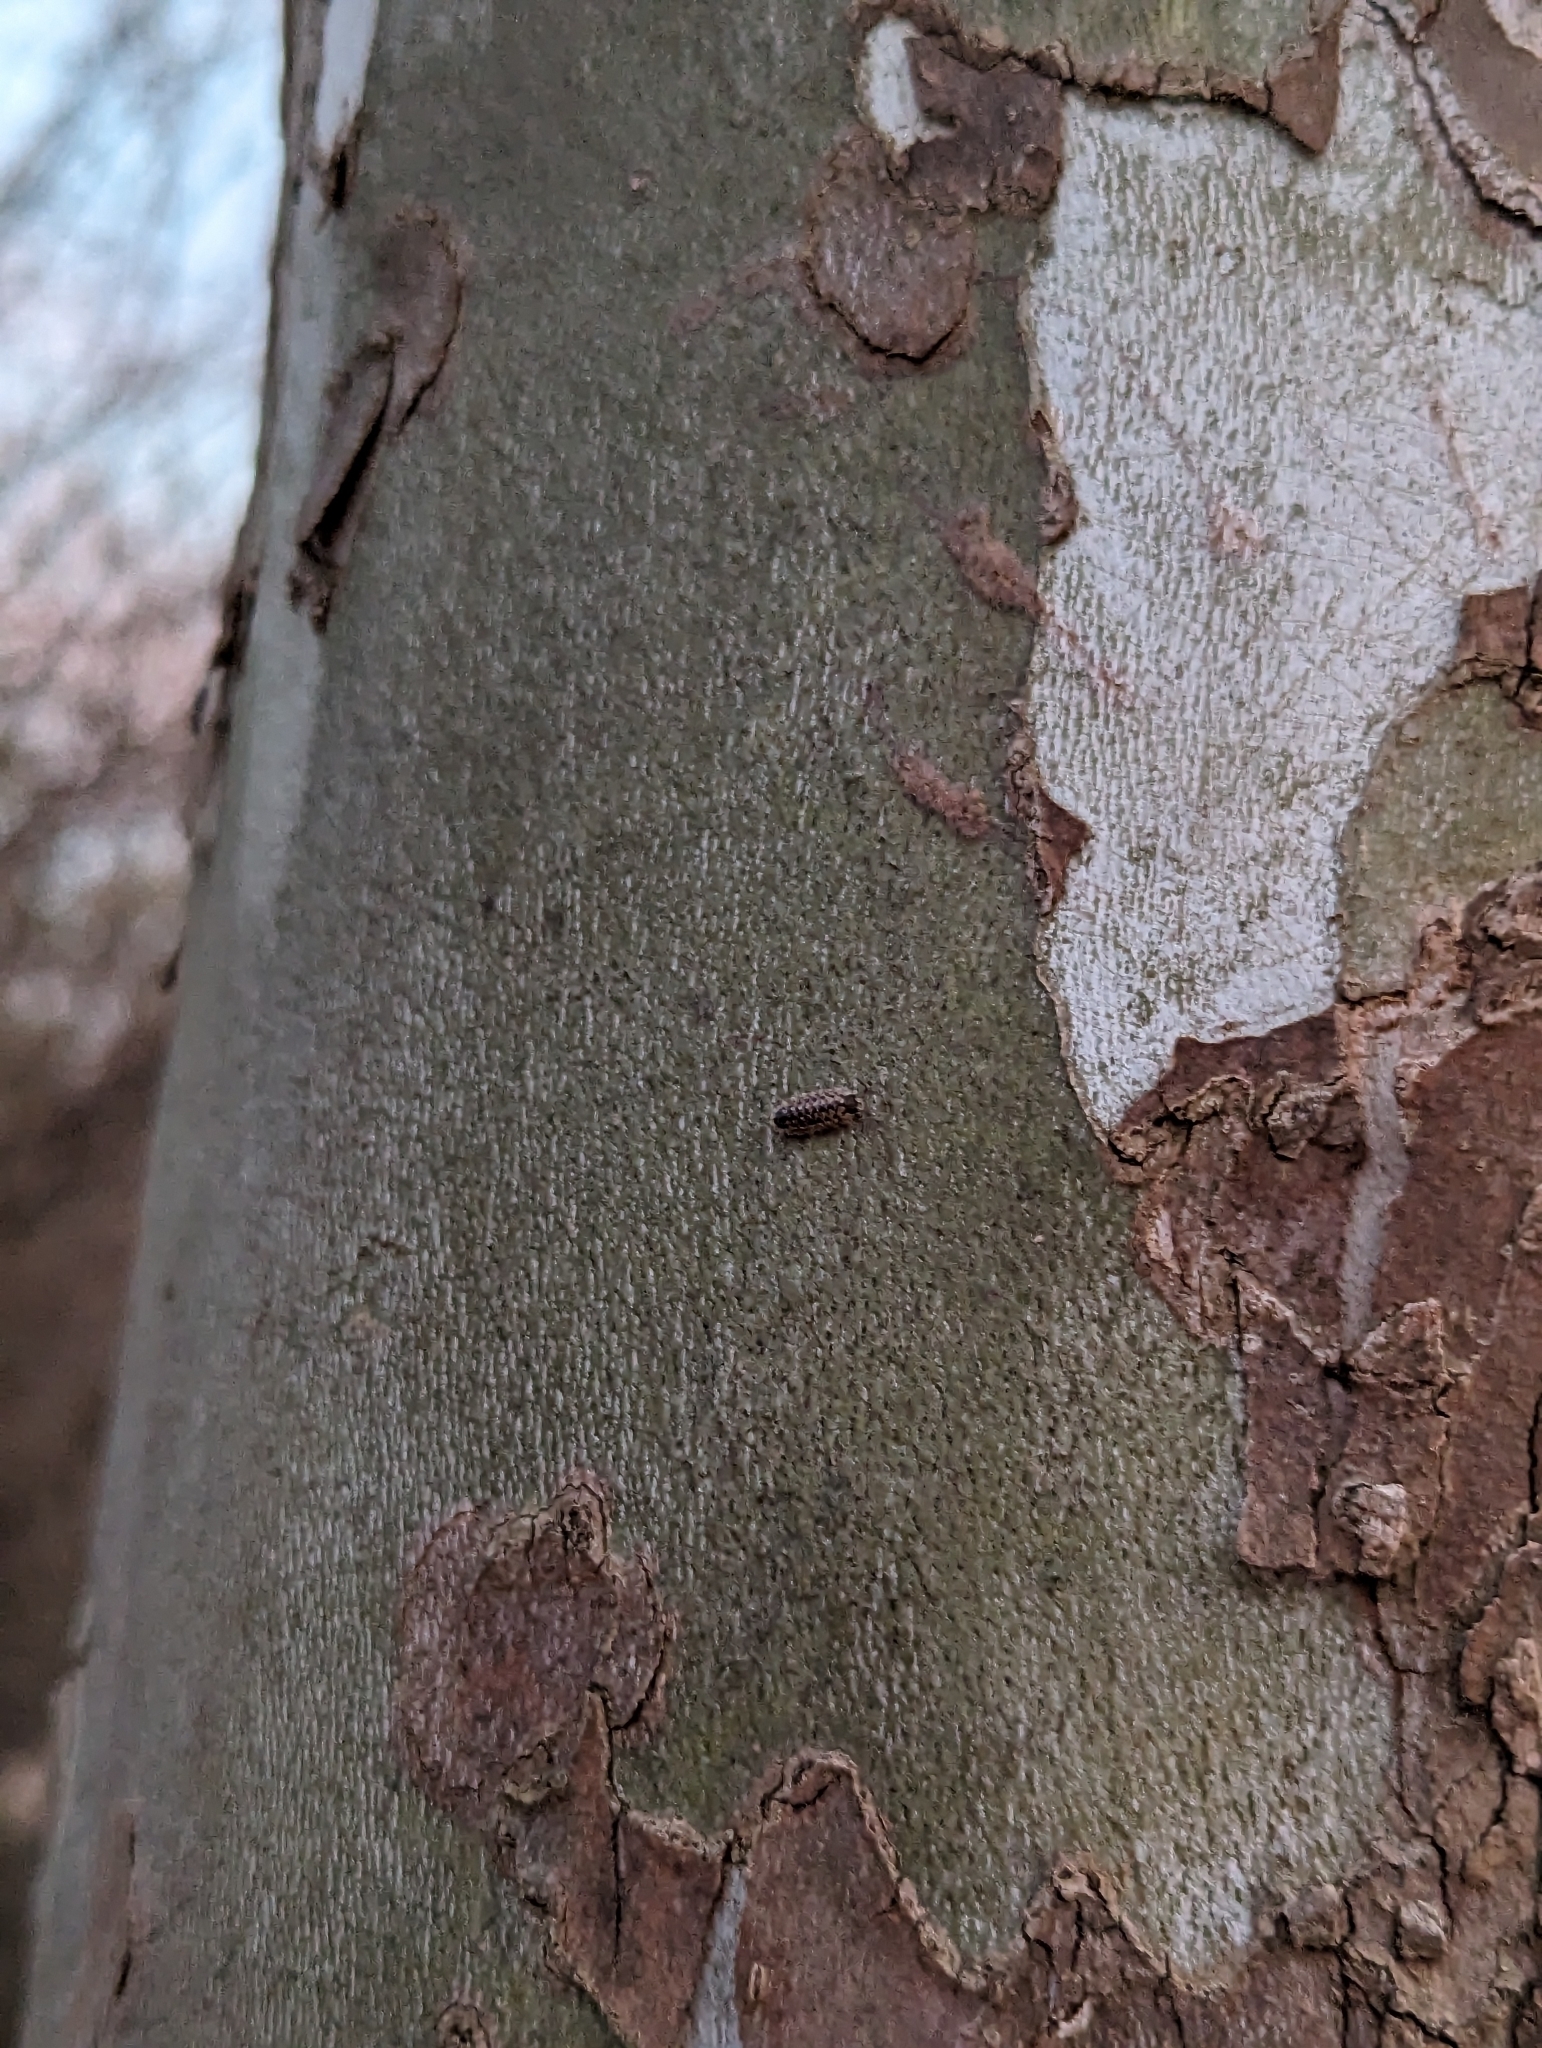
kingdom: Animalia
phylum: Arthropoda
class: Malacostraca
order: Isopoda
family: Porcellionidae
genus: Porcellio
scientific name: Porcellio spinicornis
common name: Painted woodlouse
